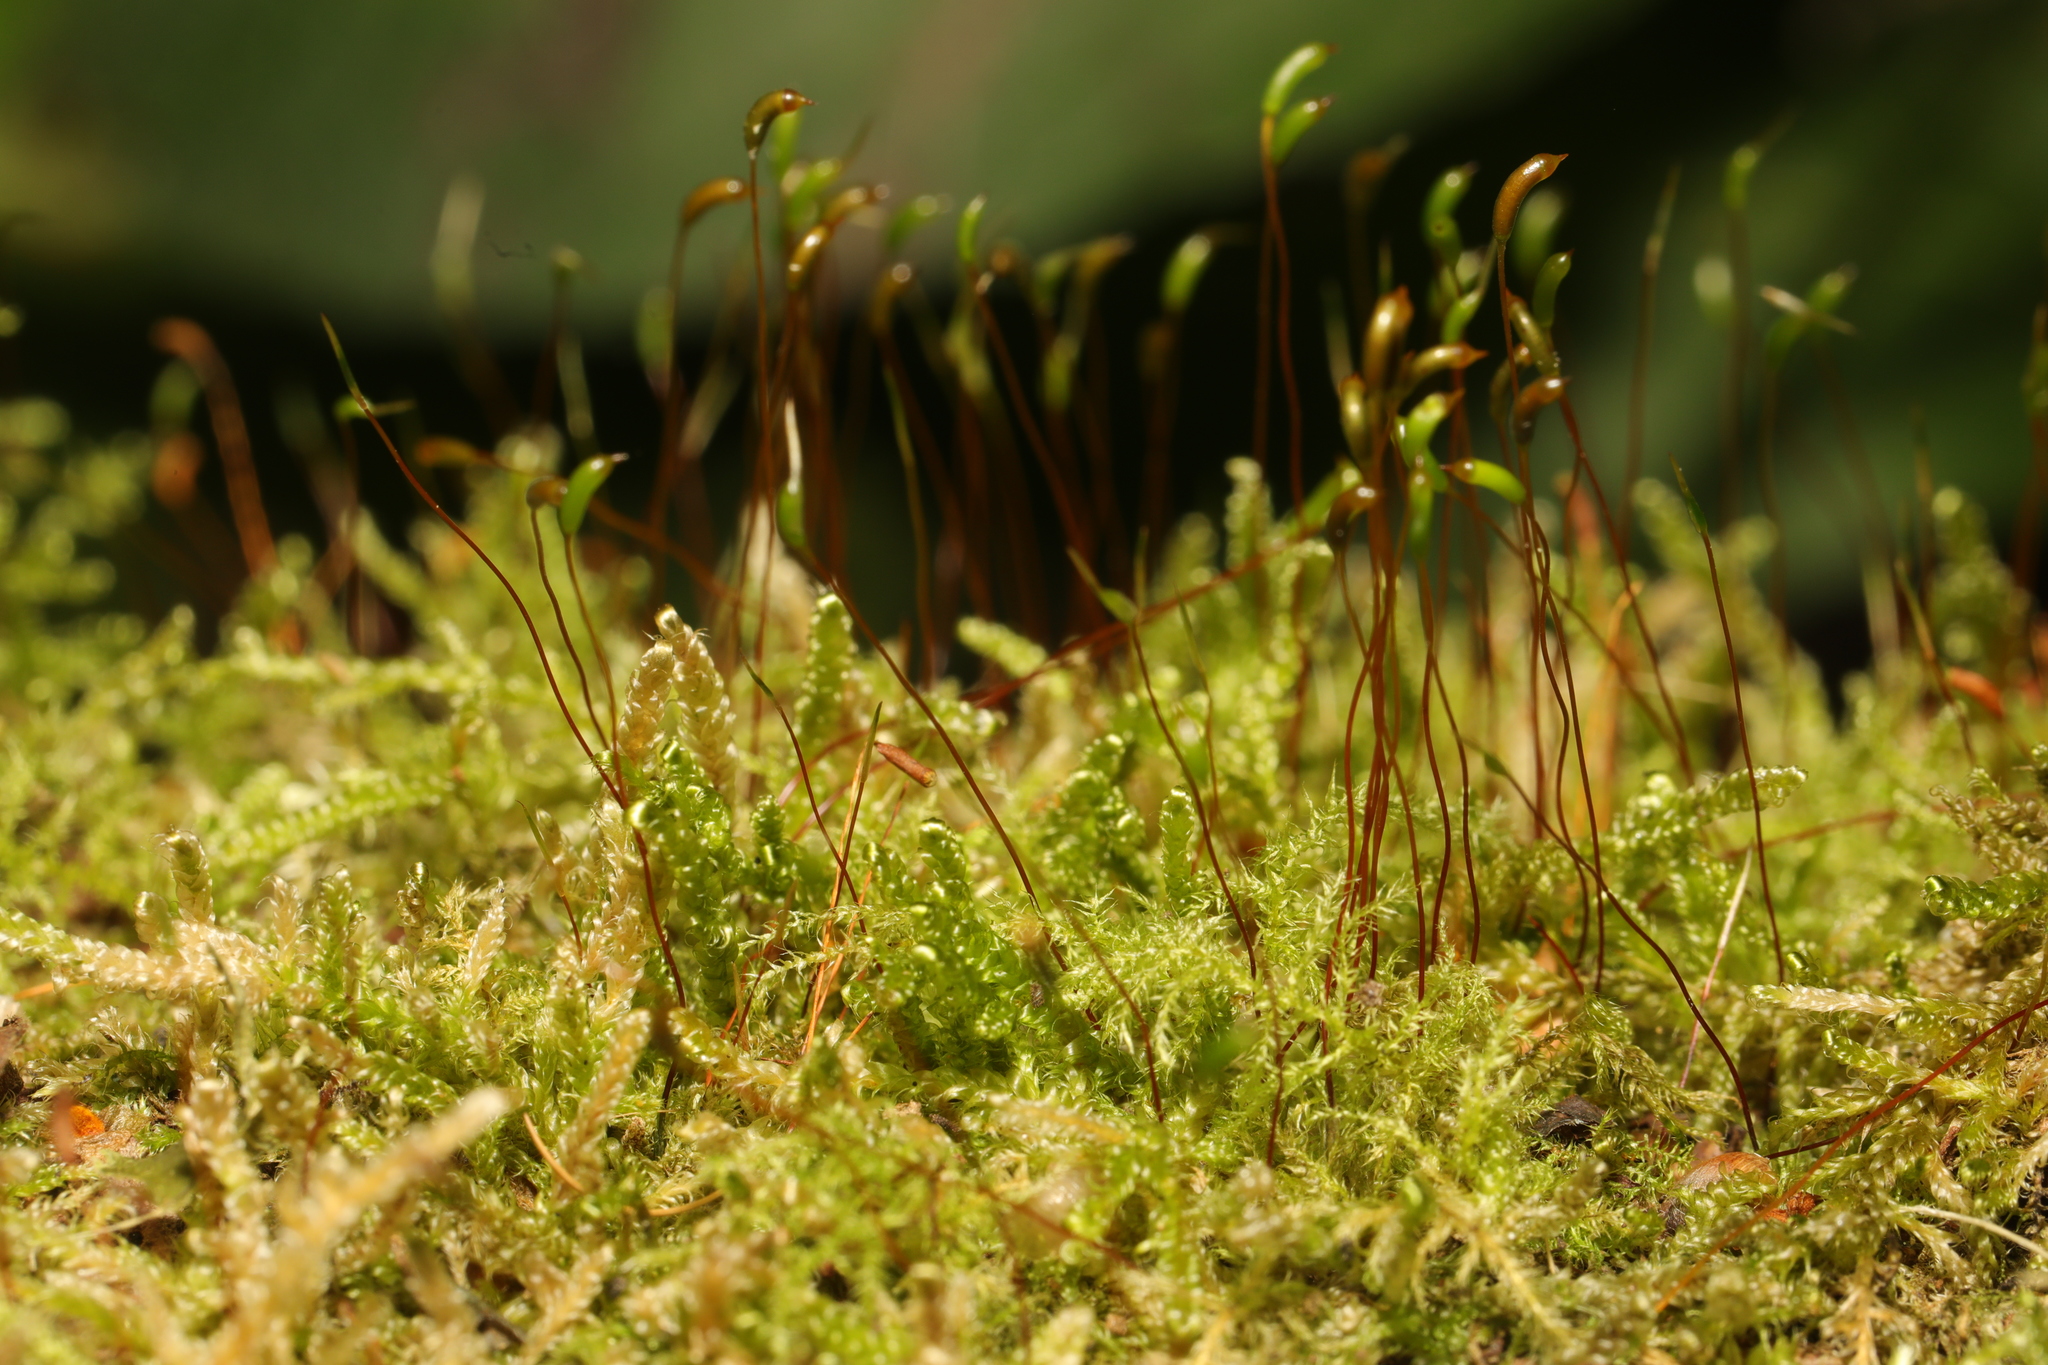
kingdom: Plantae
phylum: Bryophyta
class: Bryopsida
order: Hypnales
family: Hypnaceae
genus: Hypnum
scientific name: Hypnum cupressiforme
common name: Cypress-leaved plait-moss
